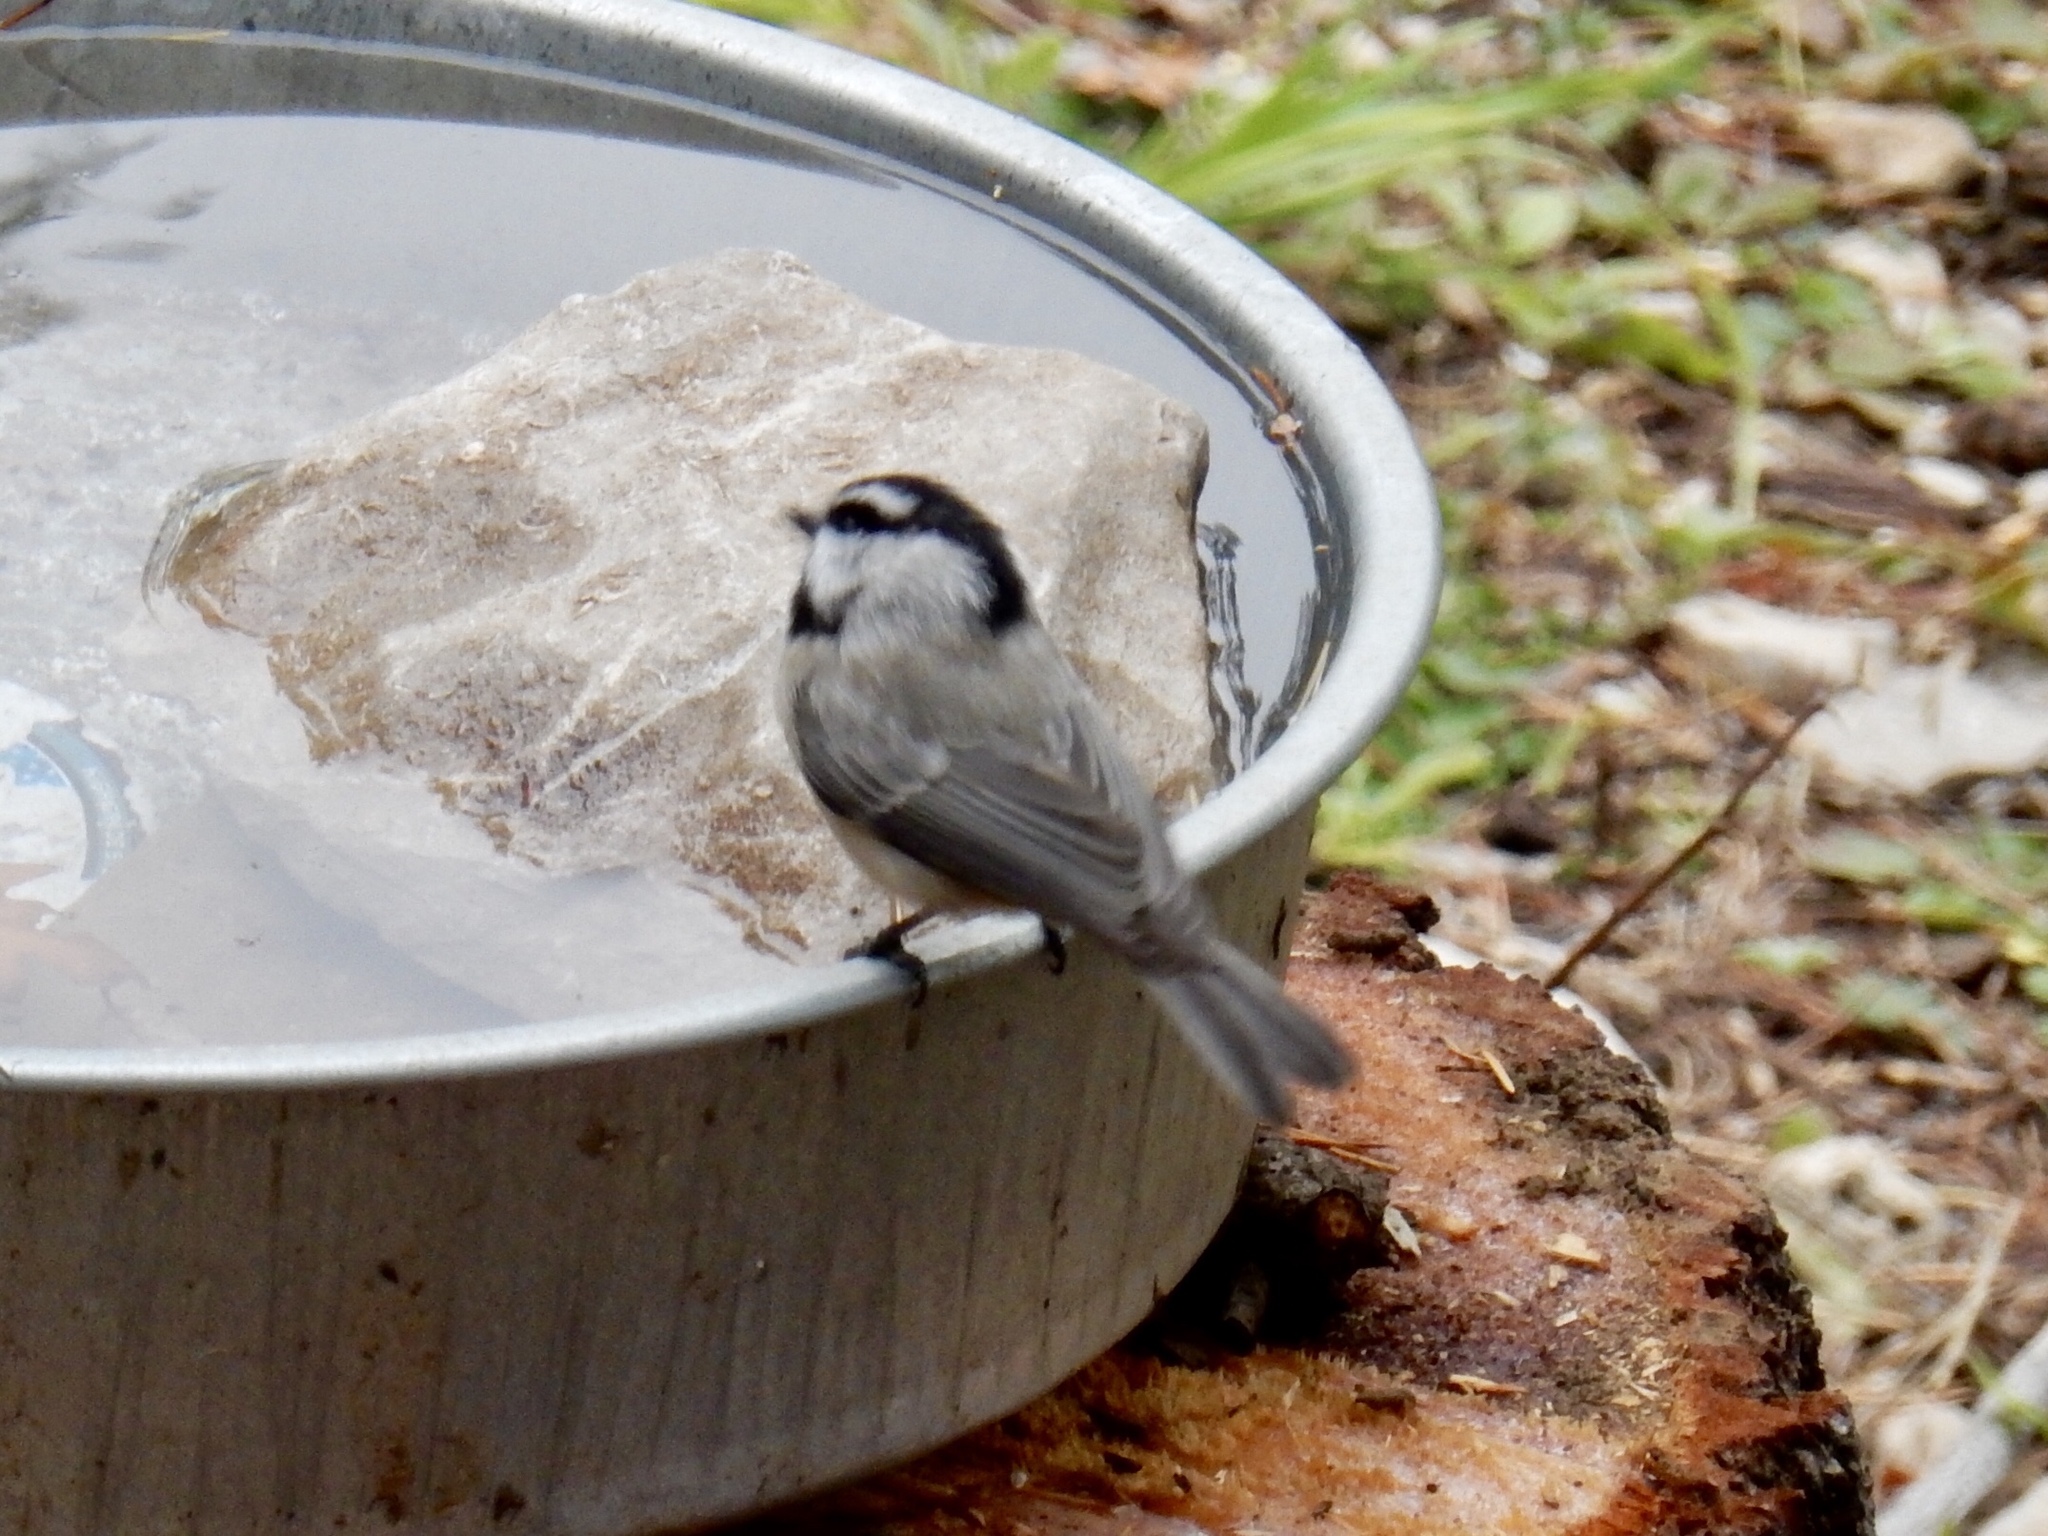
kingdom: Animalia
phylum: Chordata
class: Aves
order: Passeriformes
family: Paridae
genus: Poecile
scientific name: Poecile gambeli
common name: Mountain chickadee
